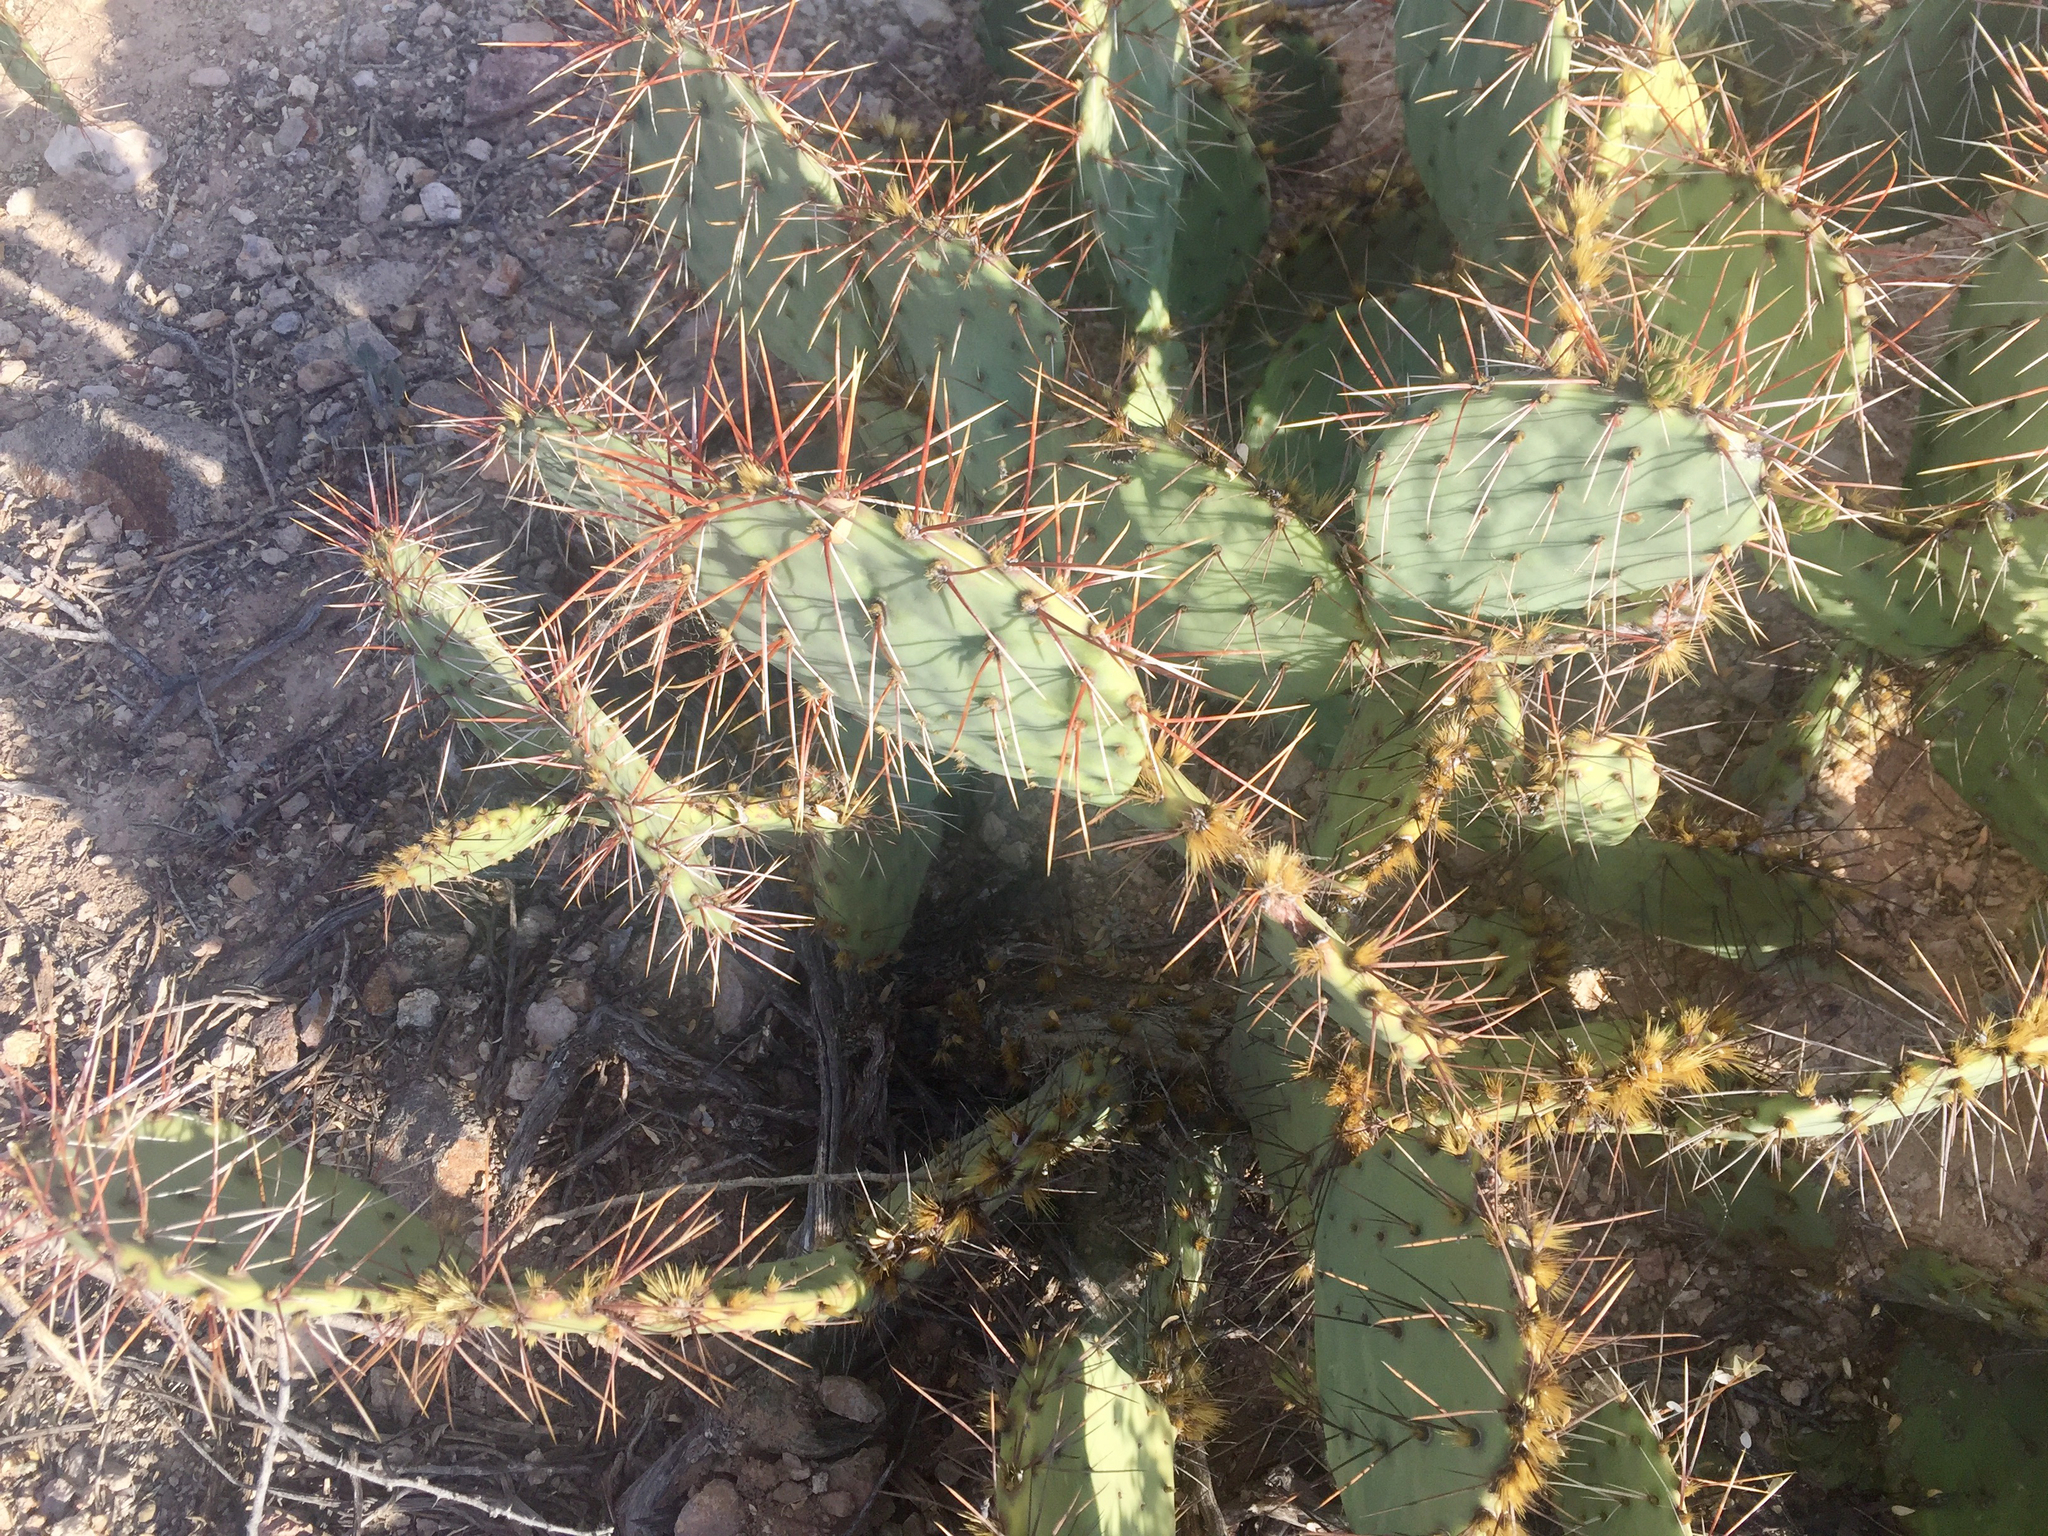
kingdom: Plantae
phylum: Tracheophyta
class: Magnoliopsida
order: Caryophyllales
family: Cactaceae
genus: Opuntia
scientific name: Opuntia phaeacantha
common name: New mexico prickly-pear
